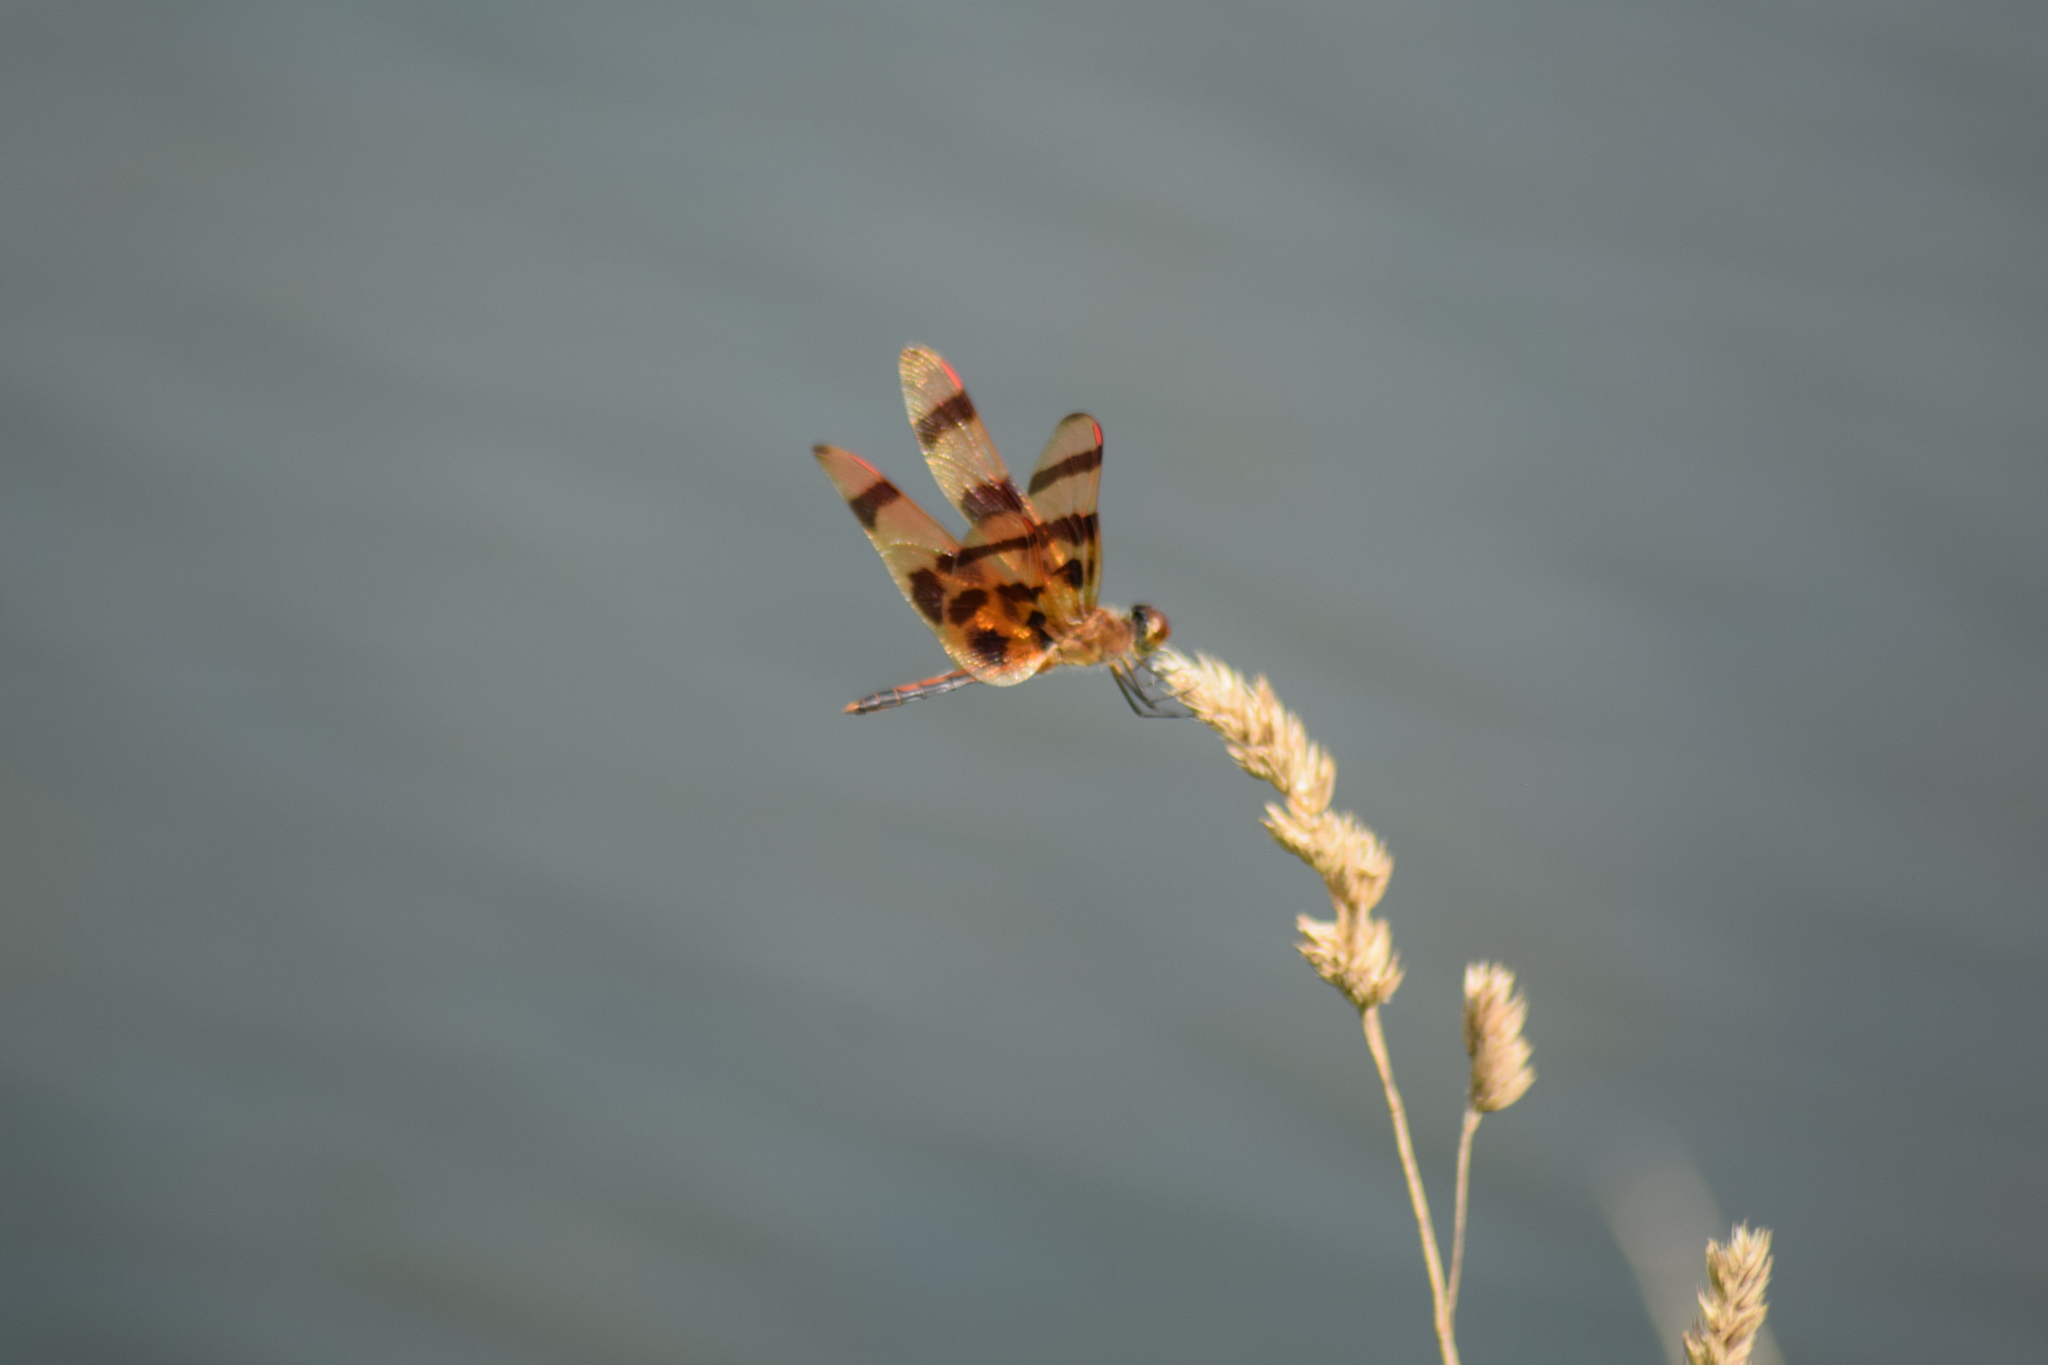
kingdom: Animalia
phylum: Arthropoda
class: Insecta
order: Odonata
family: Libellulidae
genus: Celithemis
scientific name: Celithemis eponina
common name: Halloween pennant
